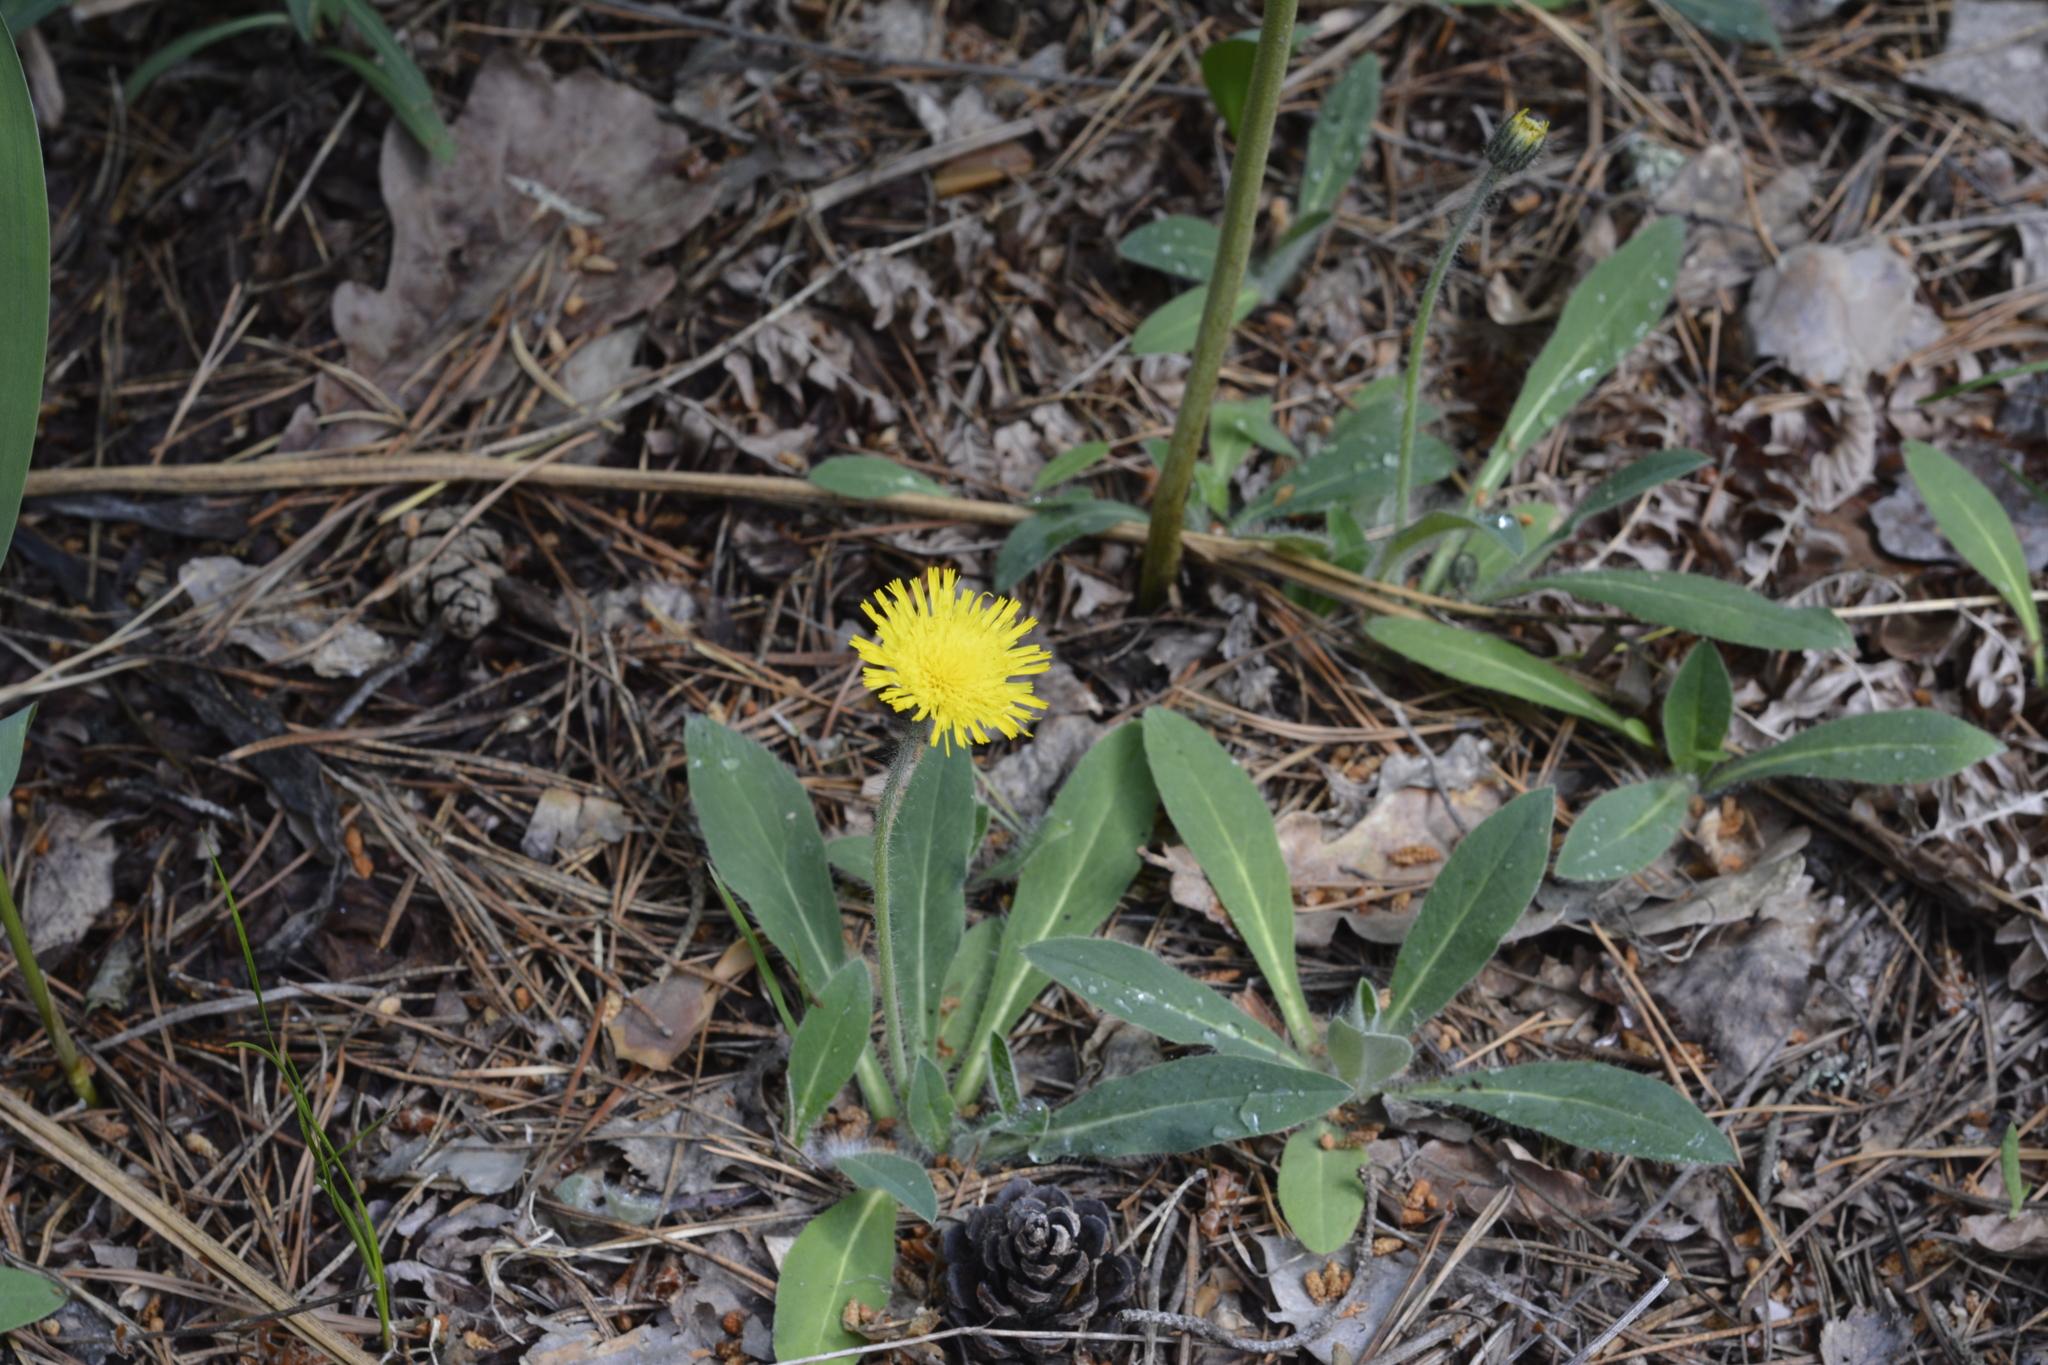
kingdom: Plantae
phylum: Tracheophyta
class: Magnoliopsida
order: Asterales
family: Asteraceae
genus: Pilosella
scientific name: Pilosella officinarum
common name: Mouse-ear hawkweed
